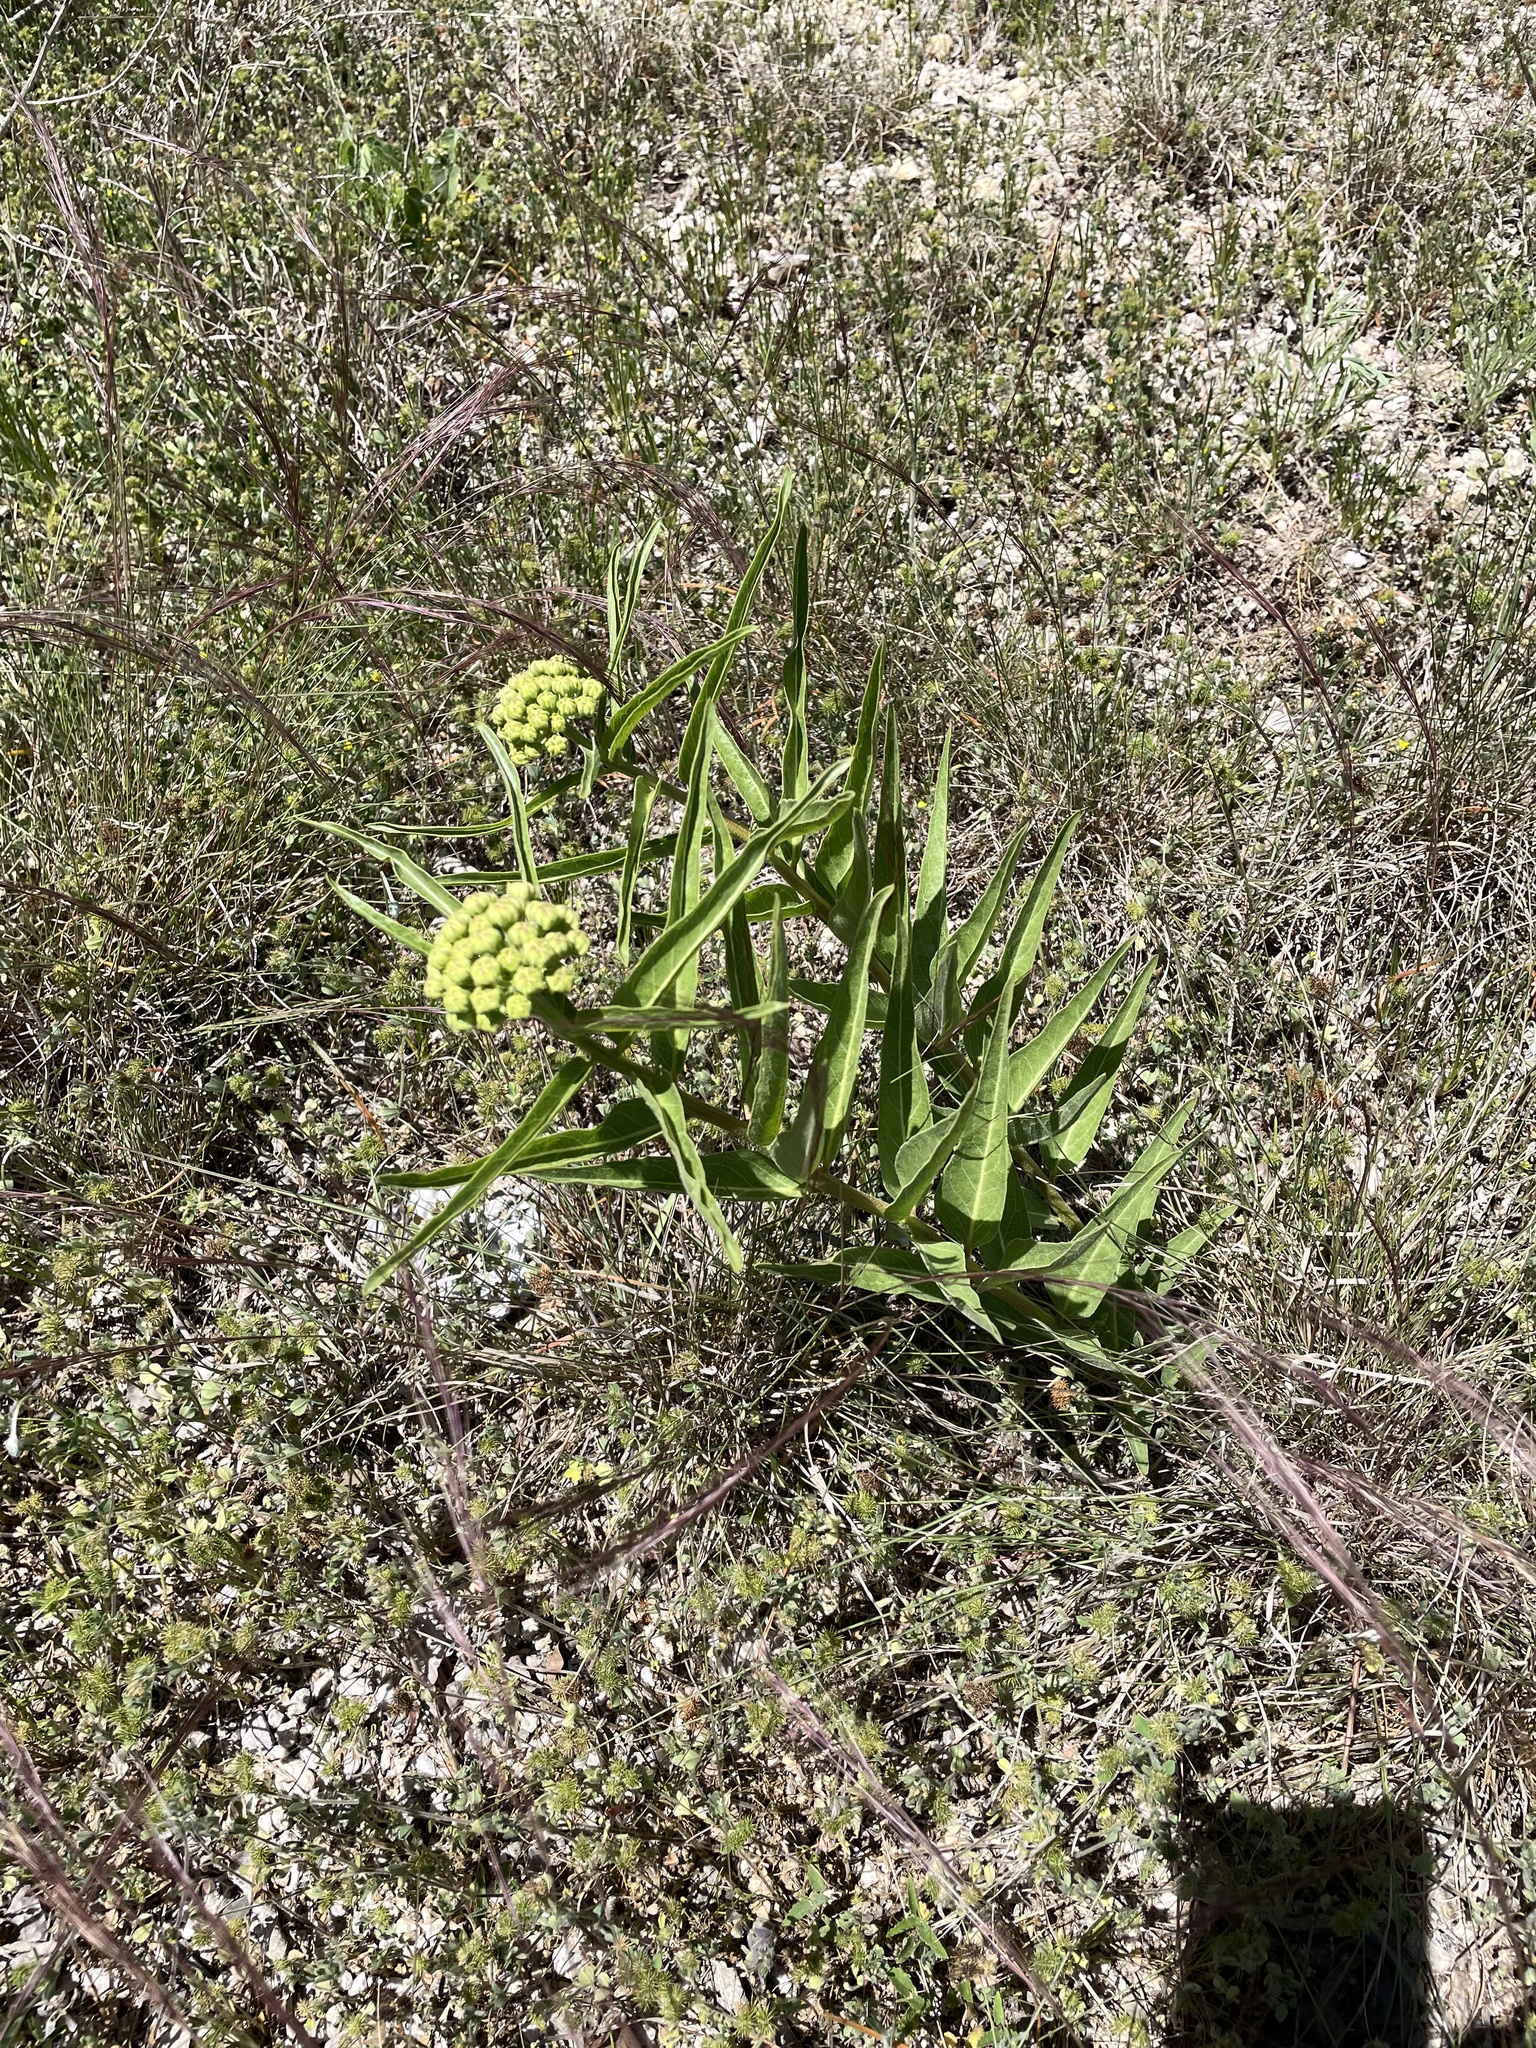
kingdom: Plantae
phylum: Tracheophyta
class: Magnoliopsida
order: Gentianales
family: Apocynaceae
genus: Asclepias
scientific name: Asclepias asperula
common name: Antelope horns
